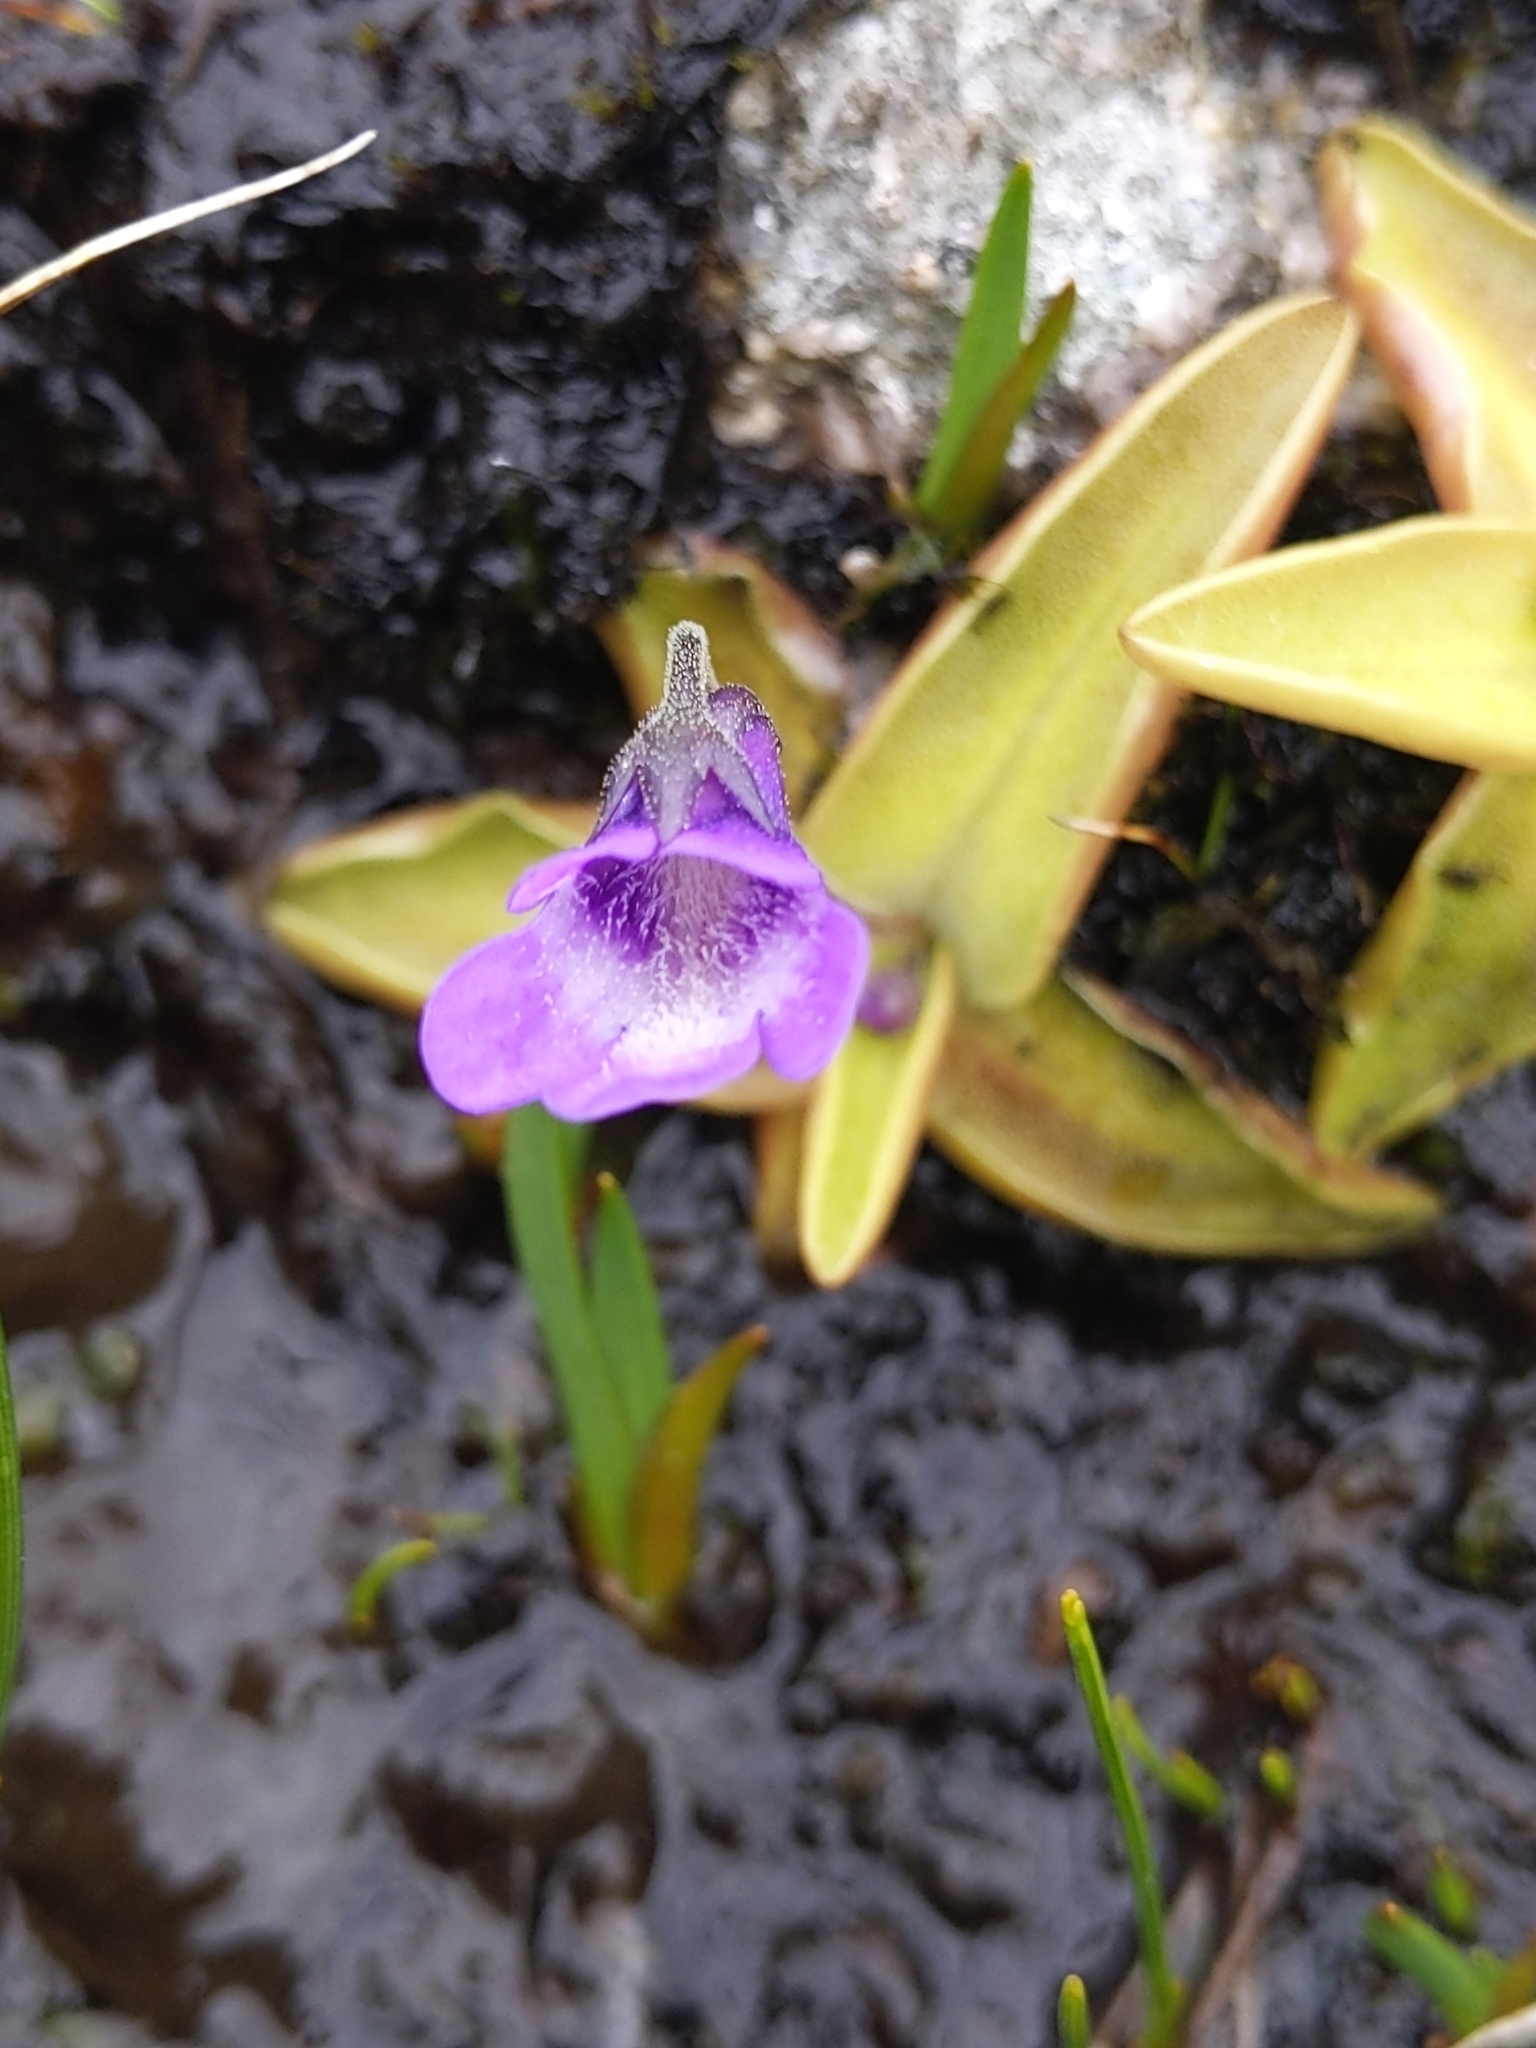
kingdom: Plantae
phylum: Tracheophyta
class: Magnoliopsida
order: Lamiales
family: Lentibulariaceae
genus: Pinguicula
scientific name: Pinguicula vulgaris
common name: Common butterwort
